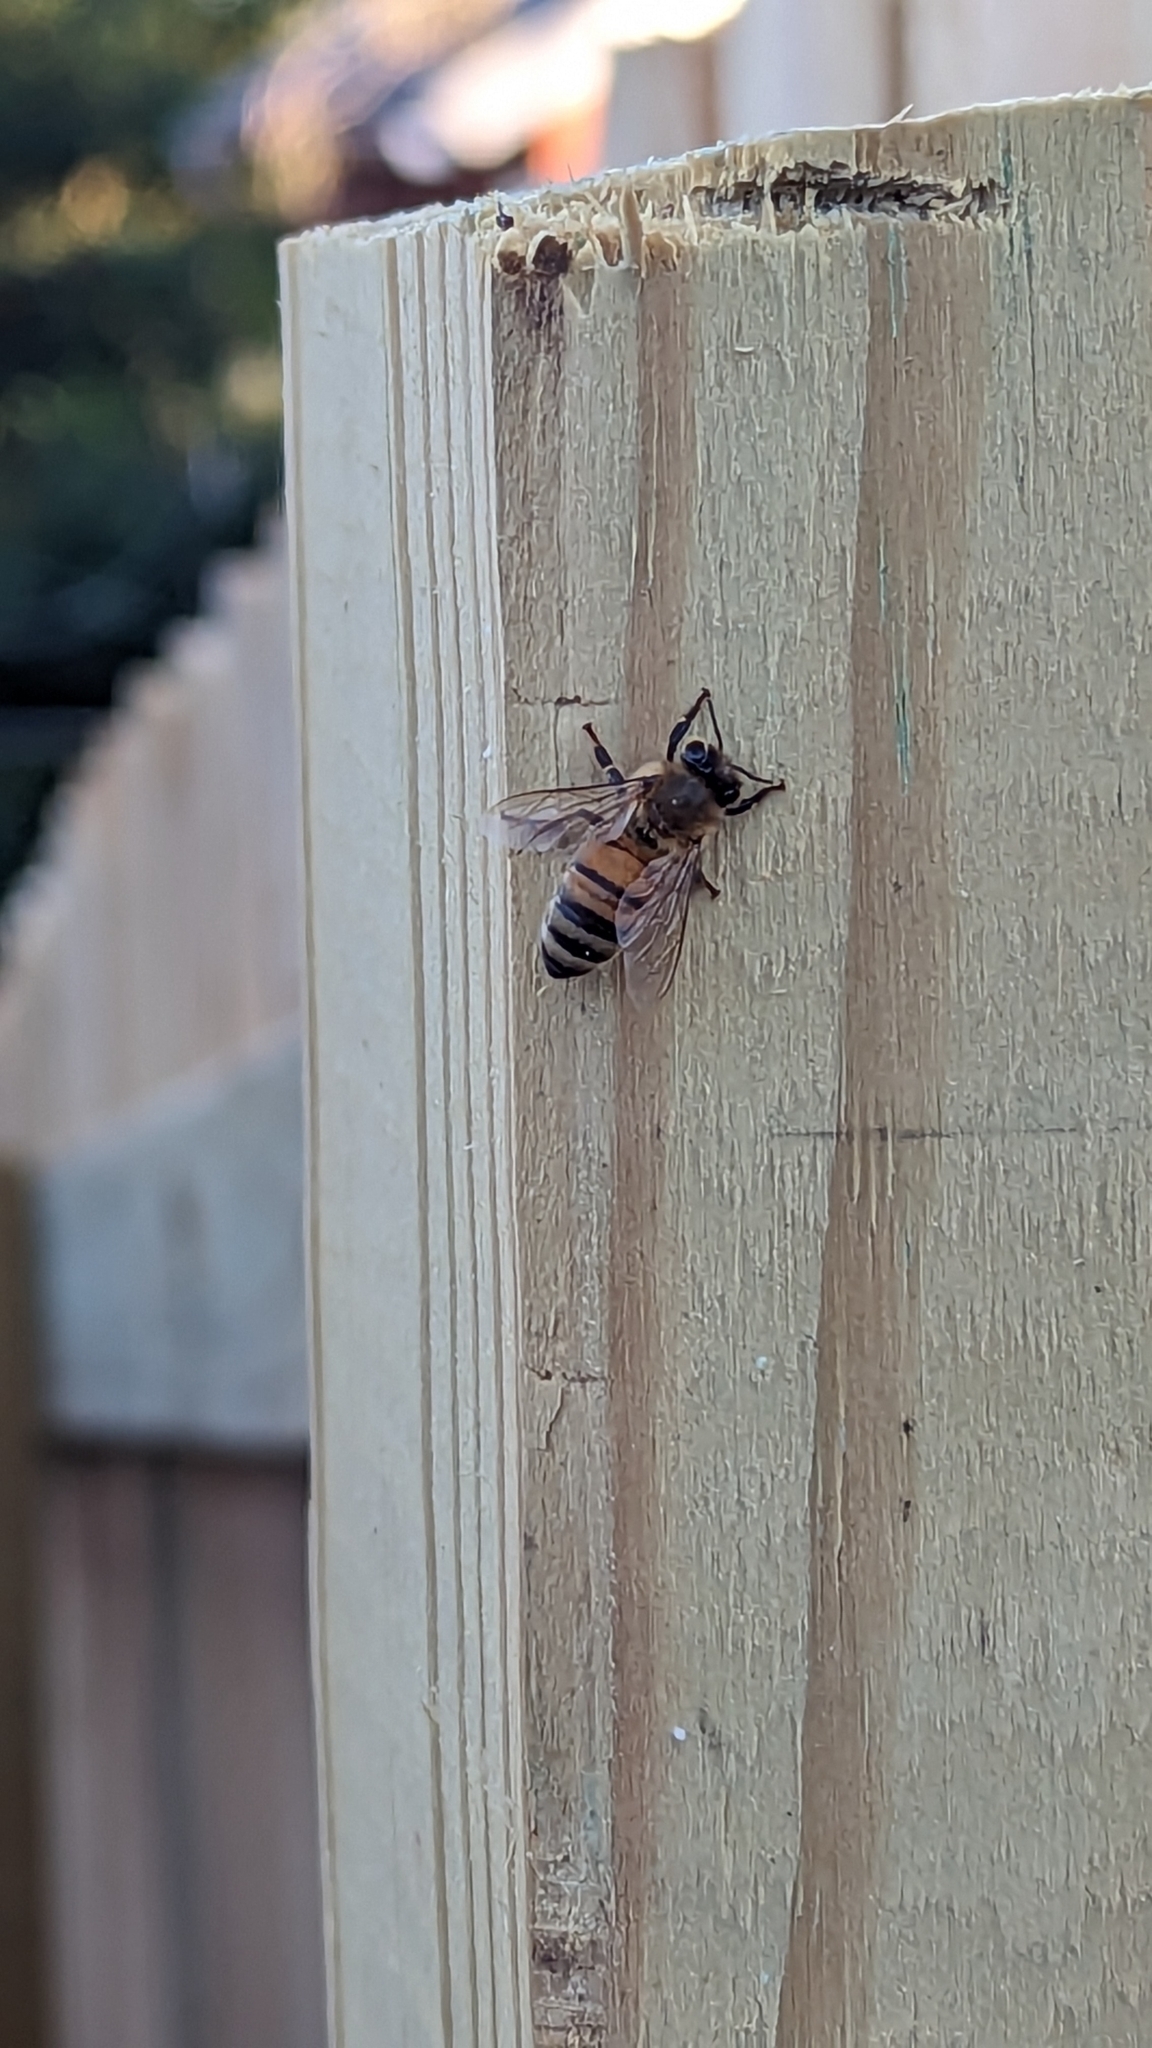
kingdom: Animalia
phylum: Arthropoda
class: Insecta
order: Hymenoptera
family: Apidae
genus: Apis
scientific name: Apis mellifera
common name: Honey bee
